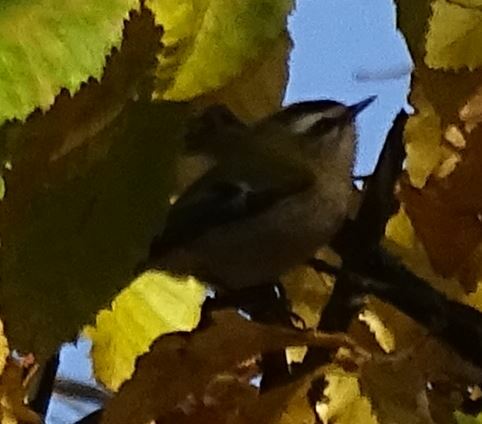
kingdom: Animalia
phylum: Chordata
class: Aves
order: Passeriformes
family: Regulidae
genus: Regulus
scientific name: Regulus ignicapilla
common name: Firecrest
